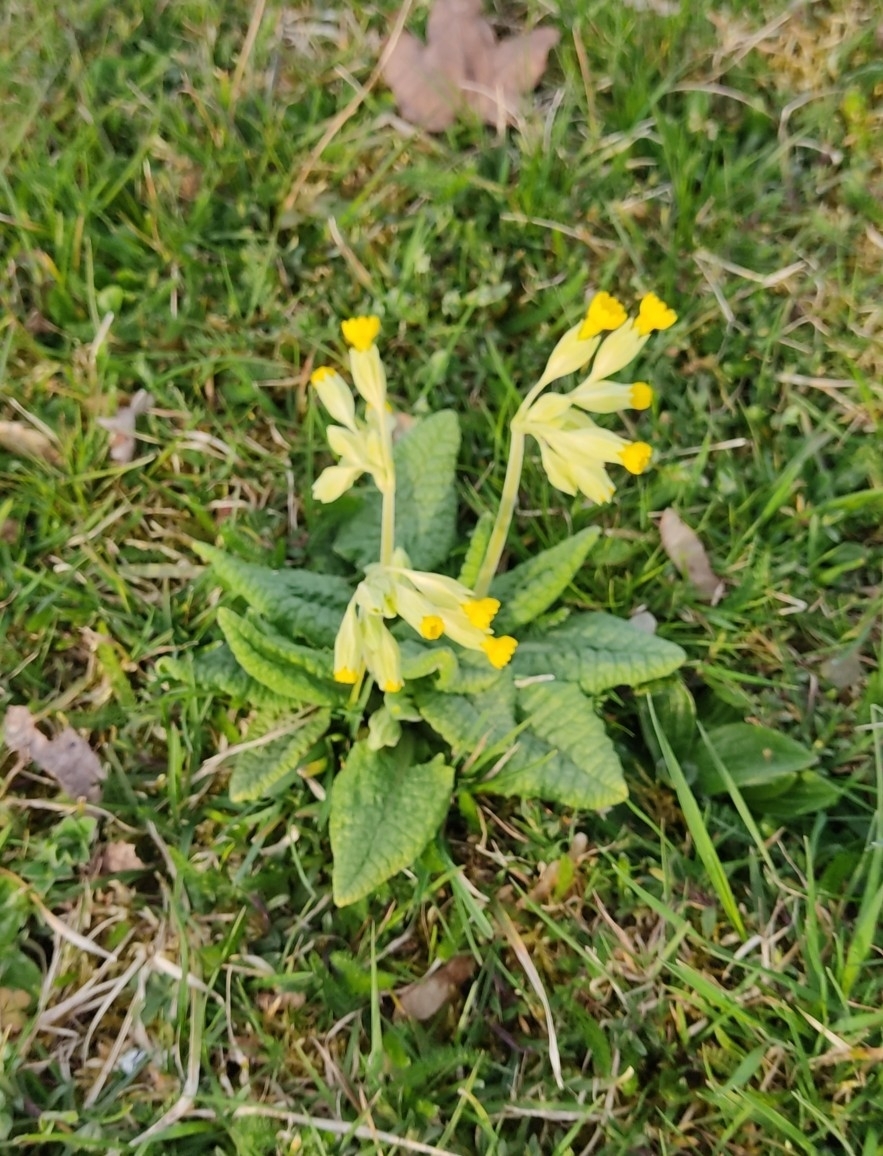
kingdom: Plantae
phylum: Tracheophyta
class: Magnoliopsida
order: Ericales
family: Primulaceae
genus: Primula
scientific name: Primula veris
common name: Cowslip
